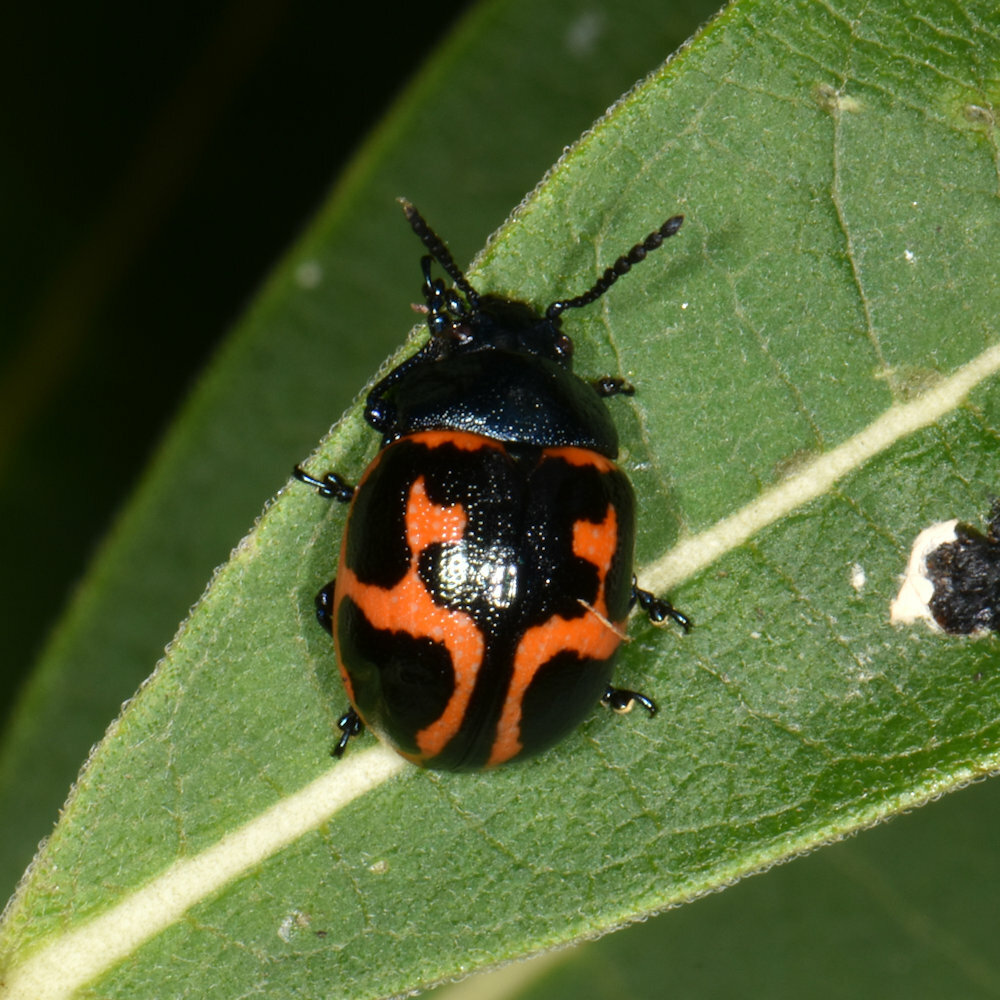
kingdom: Animalia
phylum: Arthropoda
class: Insecta
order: Coleoptera
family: Chrysomelidae
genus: Labidomera
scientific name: Labidomera clivicollis
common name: Swamp milkweed leaf beetle
